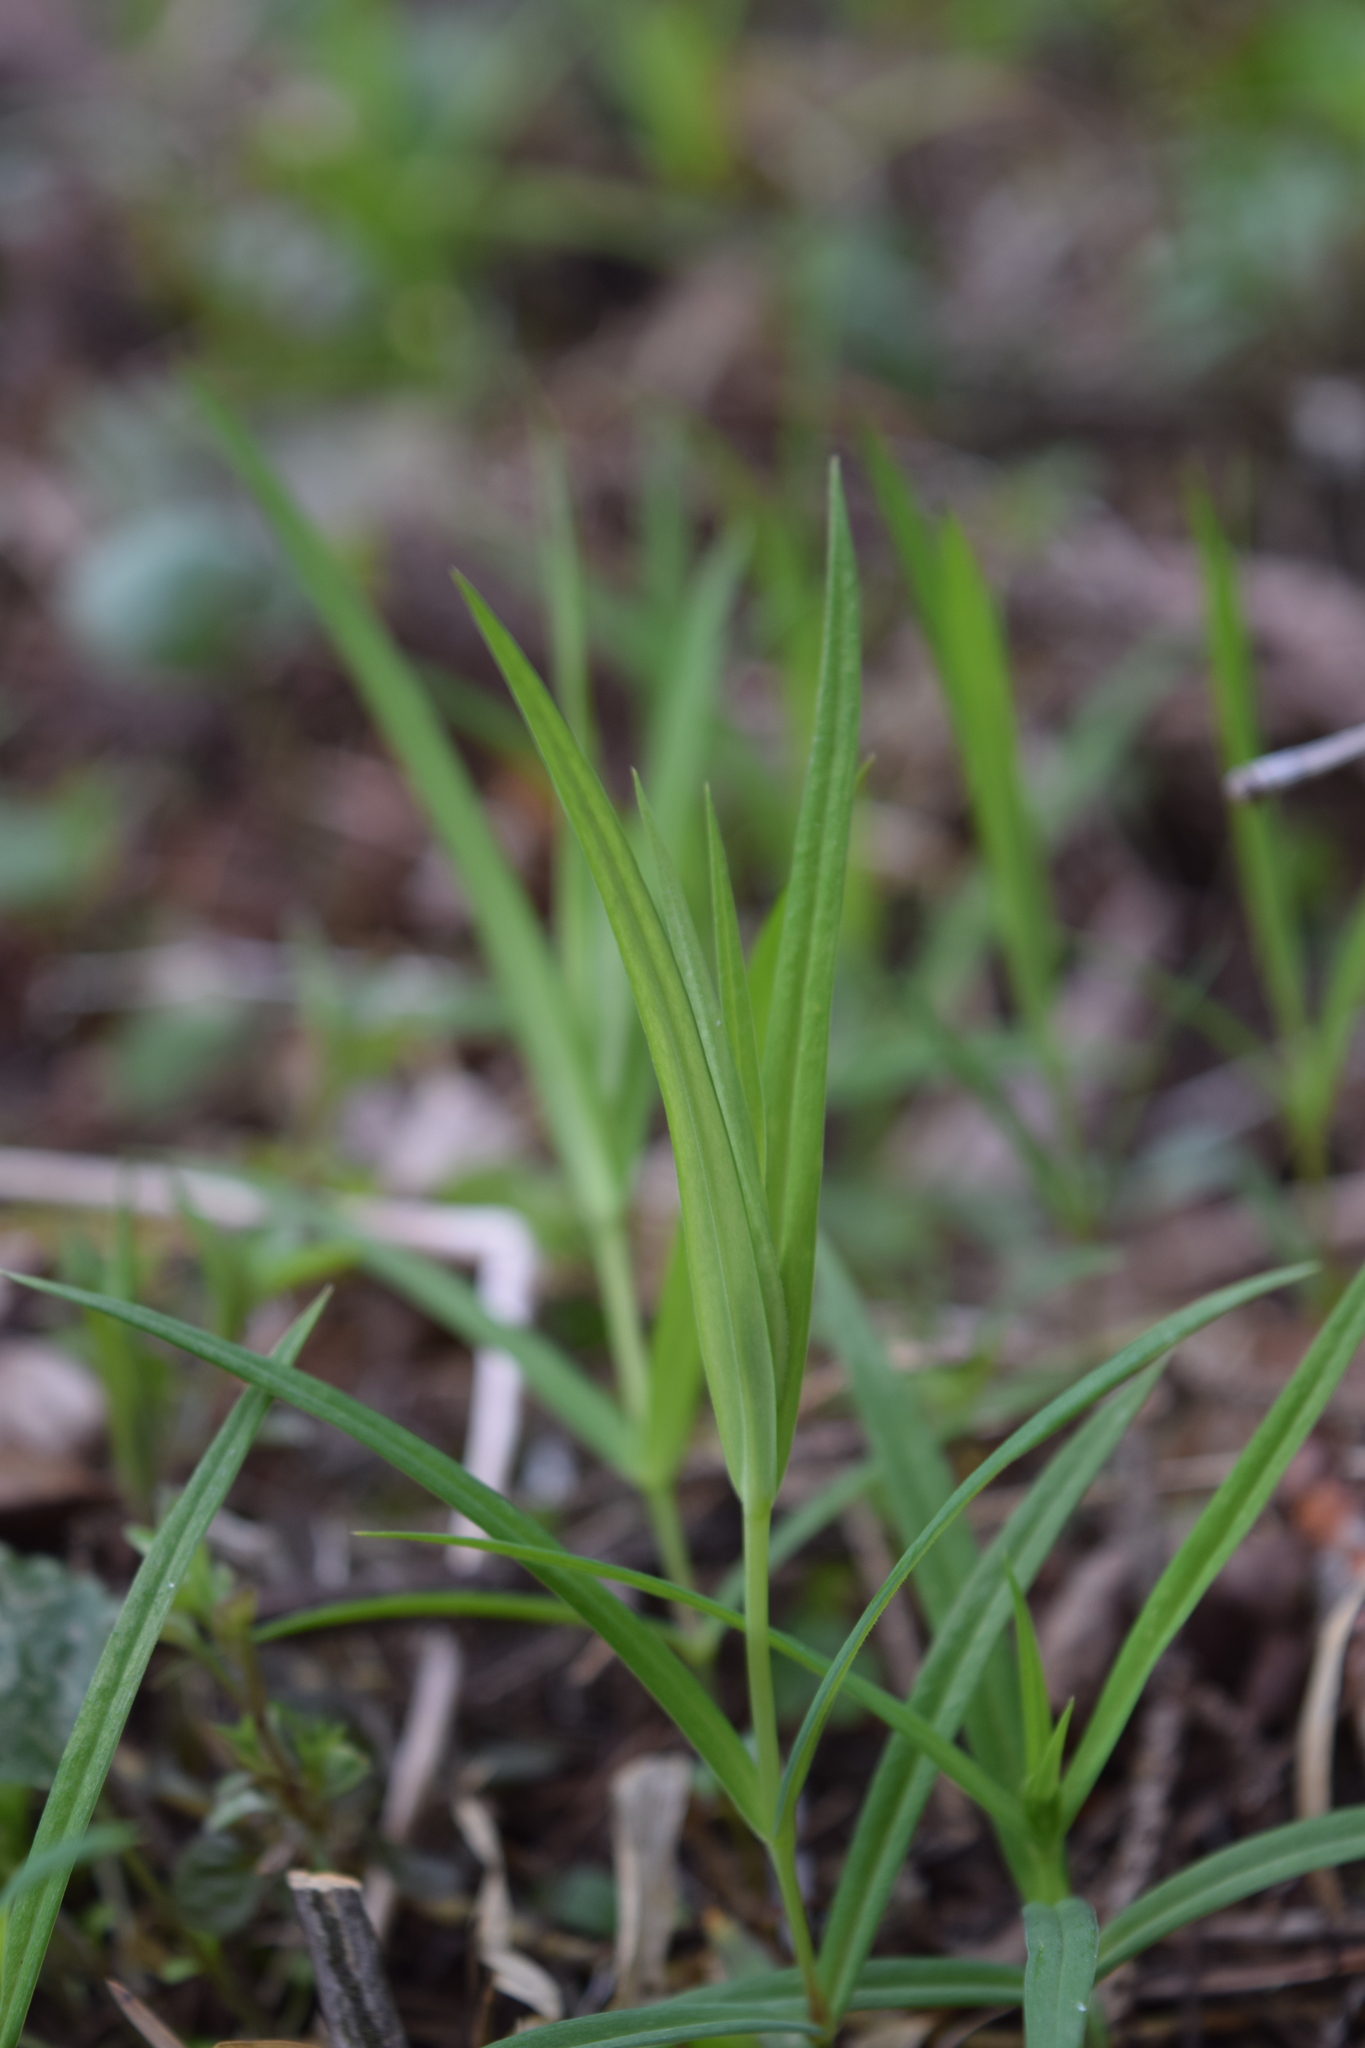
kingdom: Plantae
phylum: Tracheophyta
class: Magnoliopsida
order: Caryophyllales
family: Caryophyllaceae
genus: Rabelera
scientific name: Rabelera holostea
